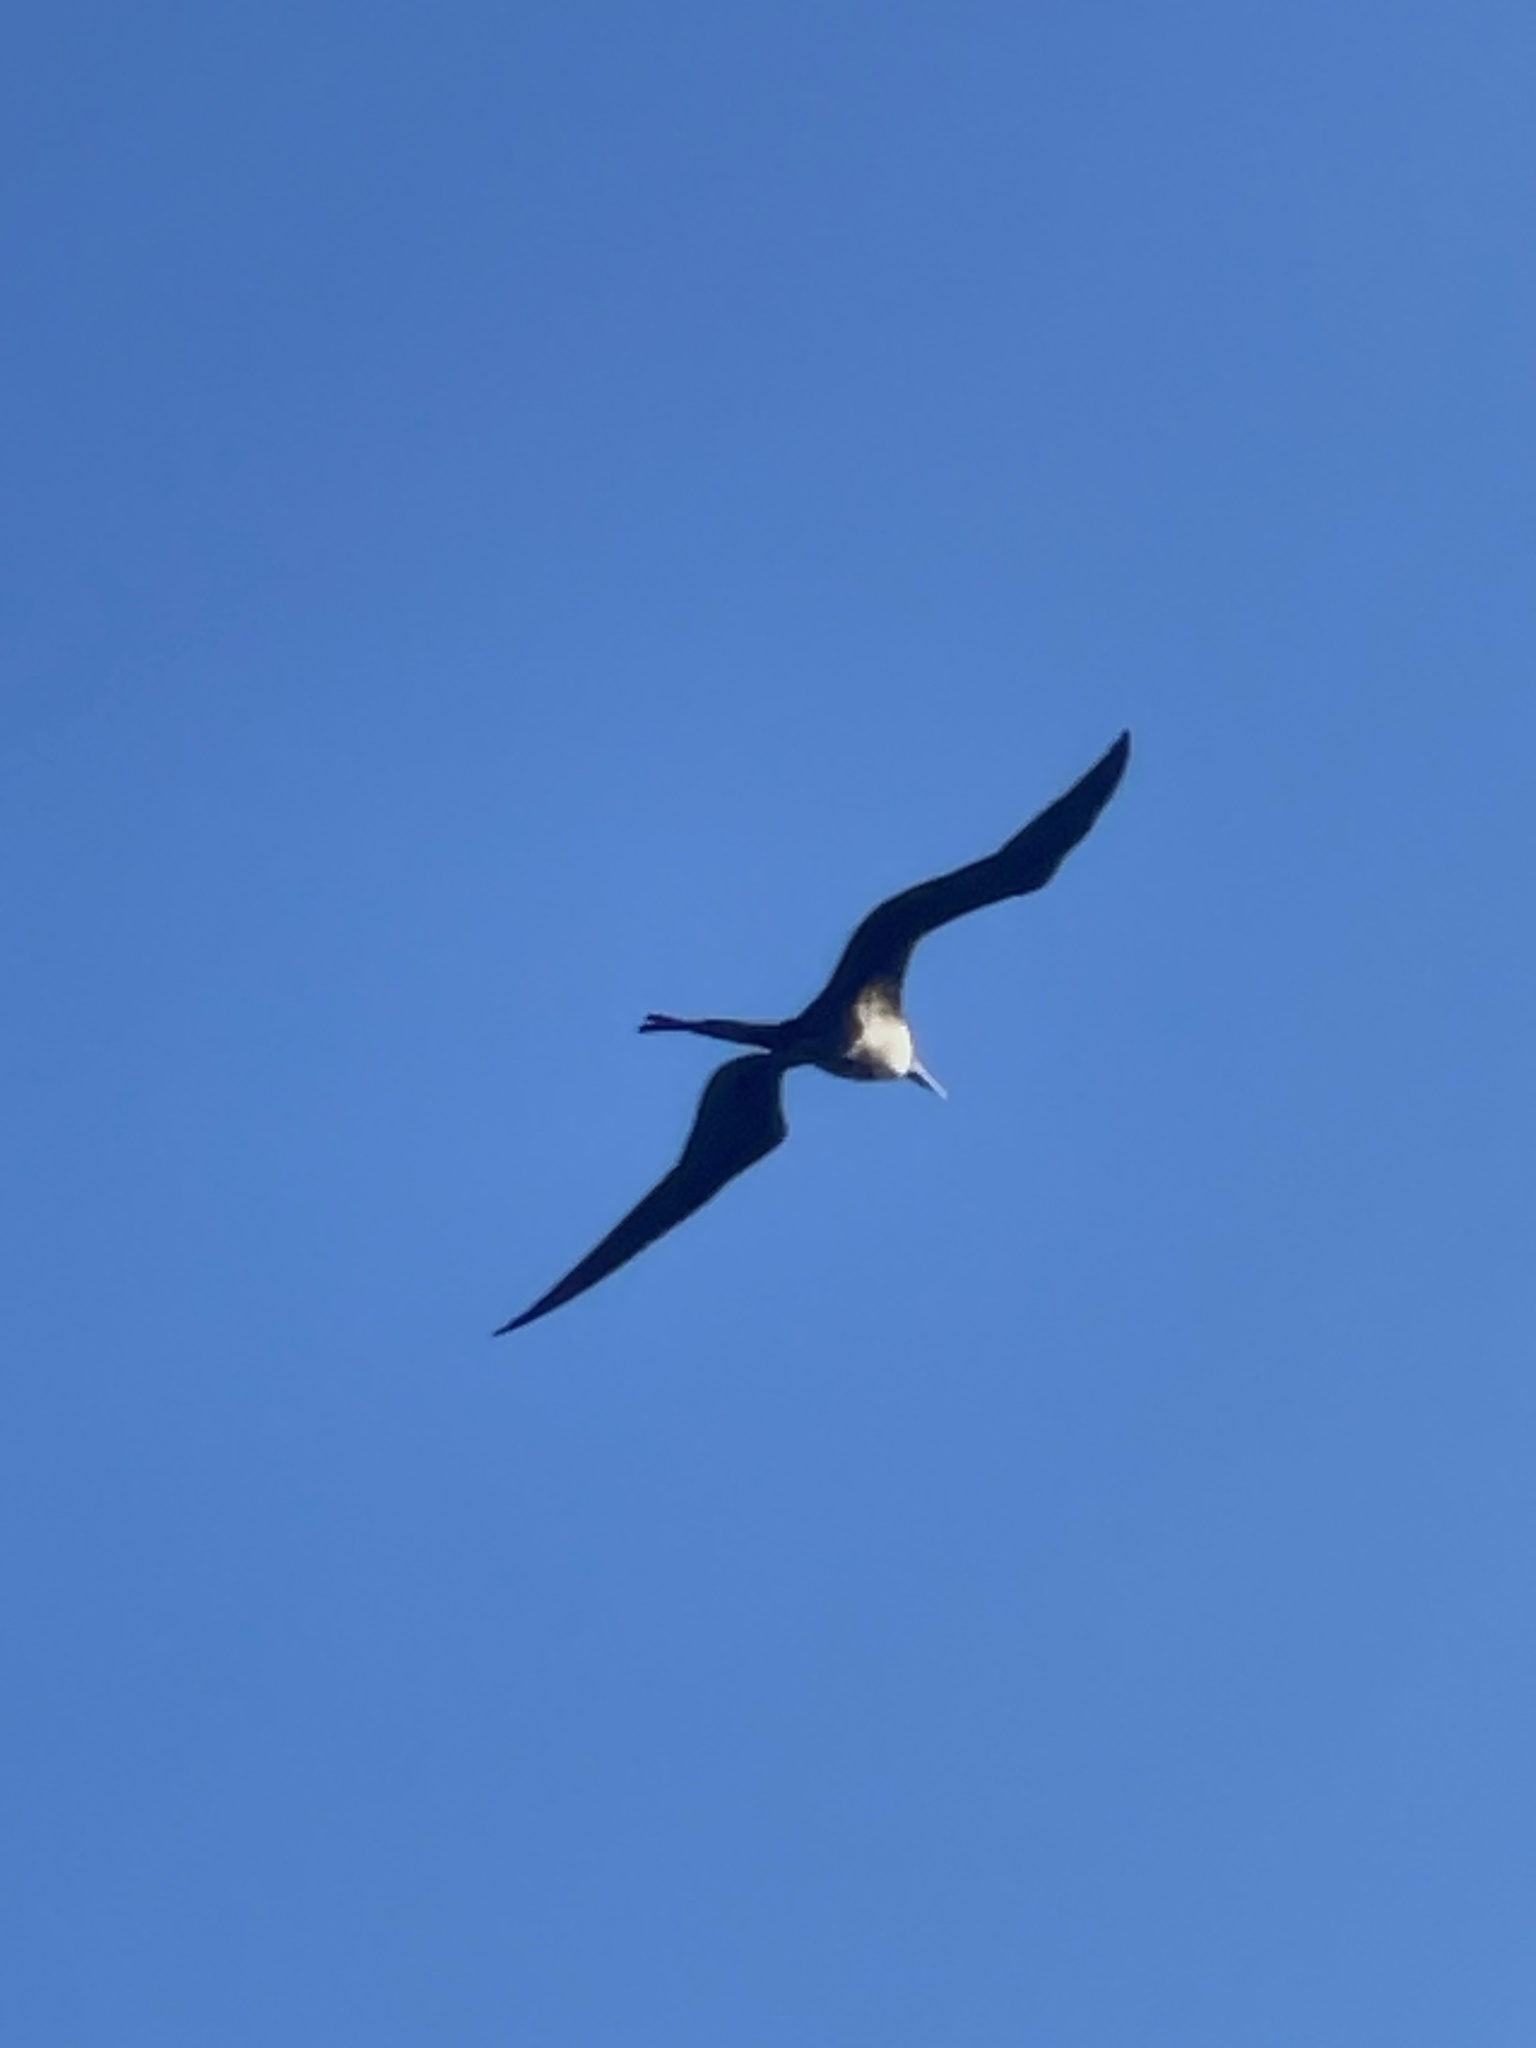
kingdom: Animalia
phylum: Chordata
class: Aves
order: Suliformes
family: Fregatidae
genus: Fregata
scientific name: Fregata magnificens
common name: Magnificent frigatebird
